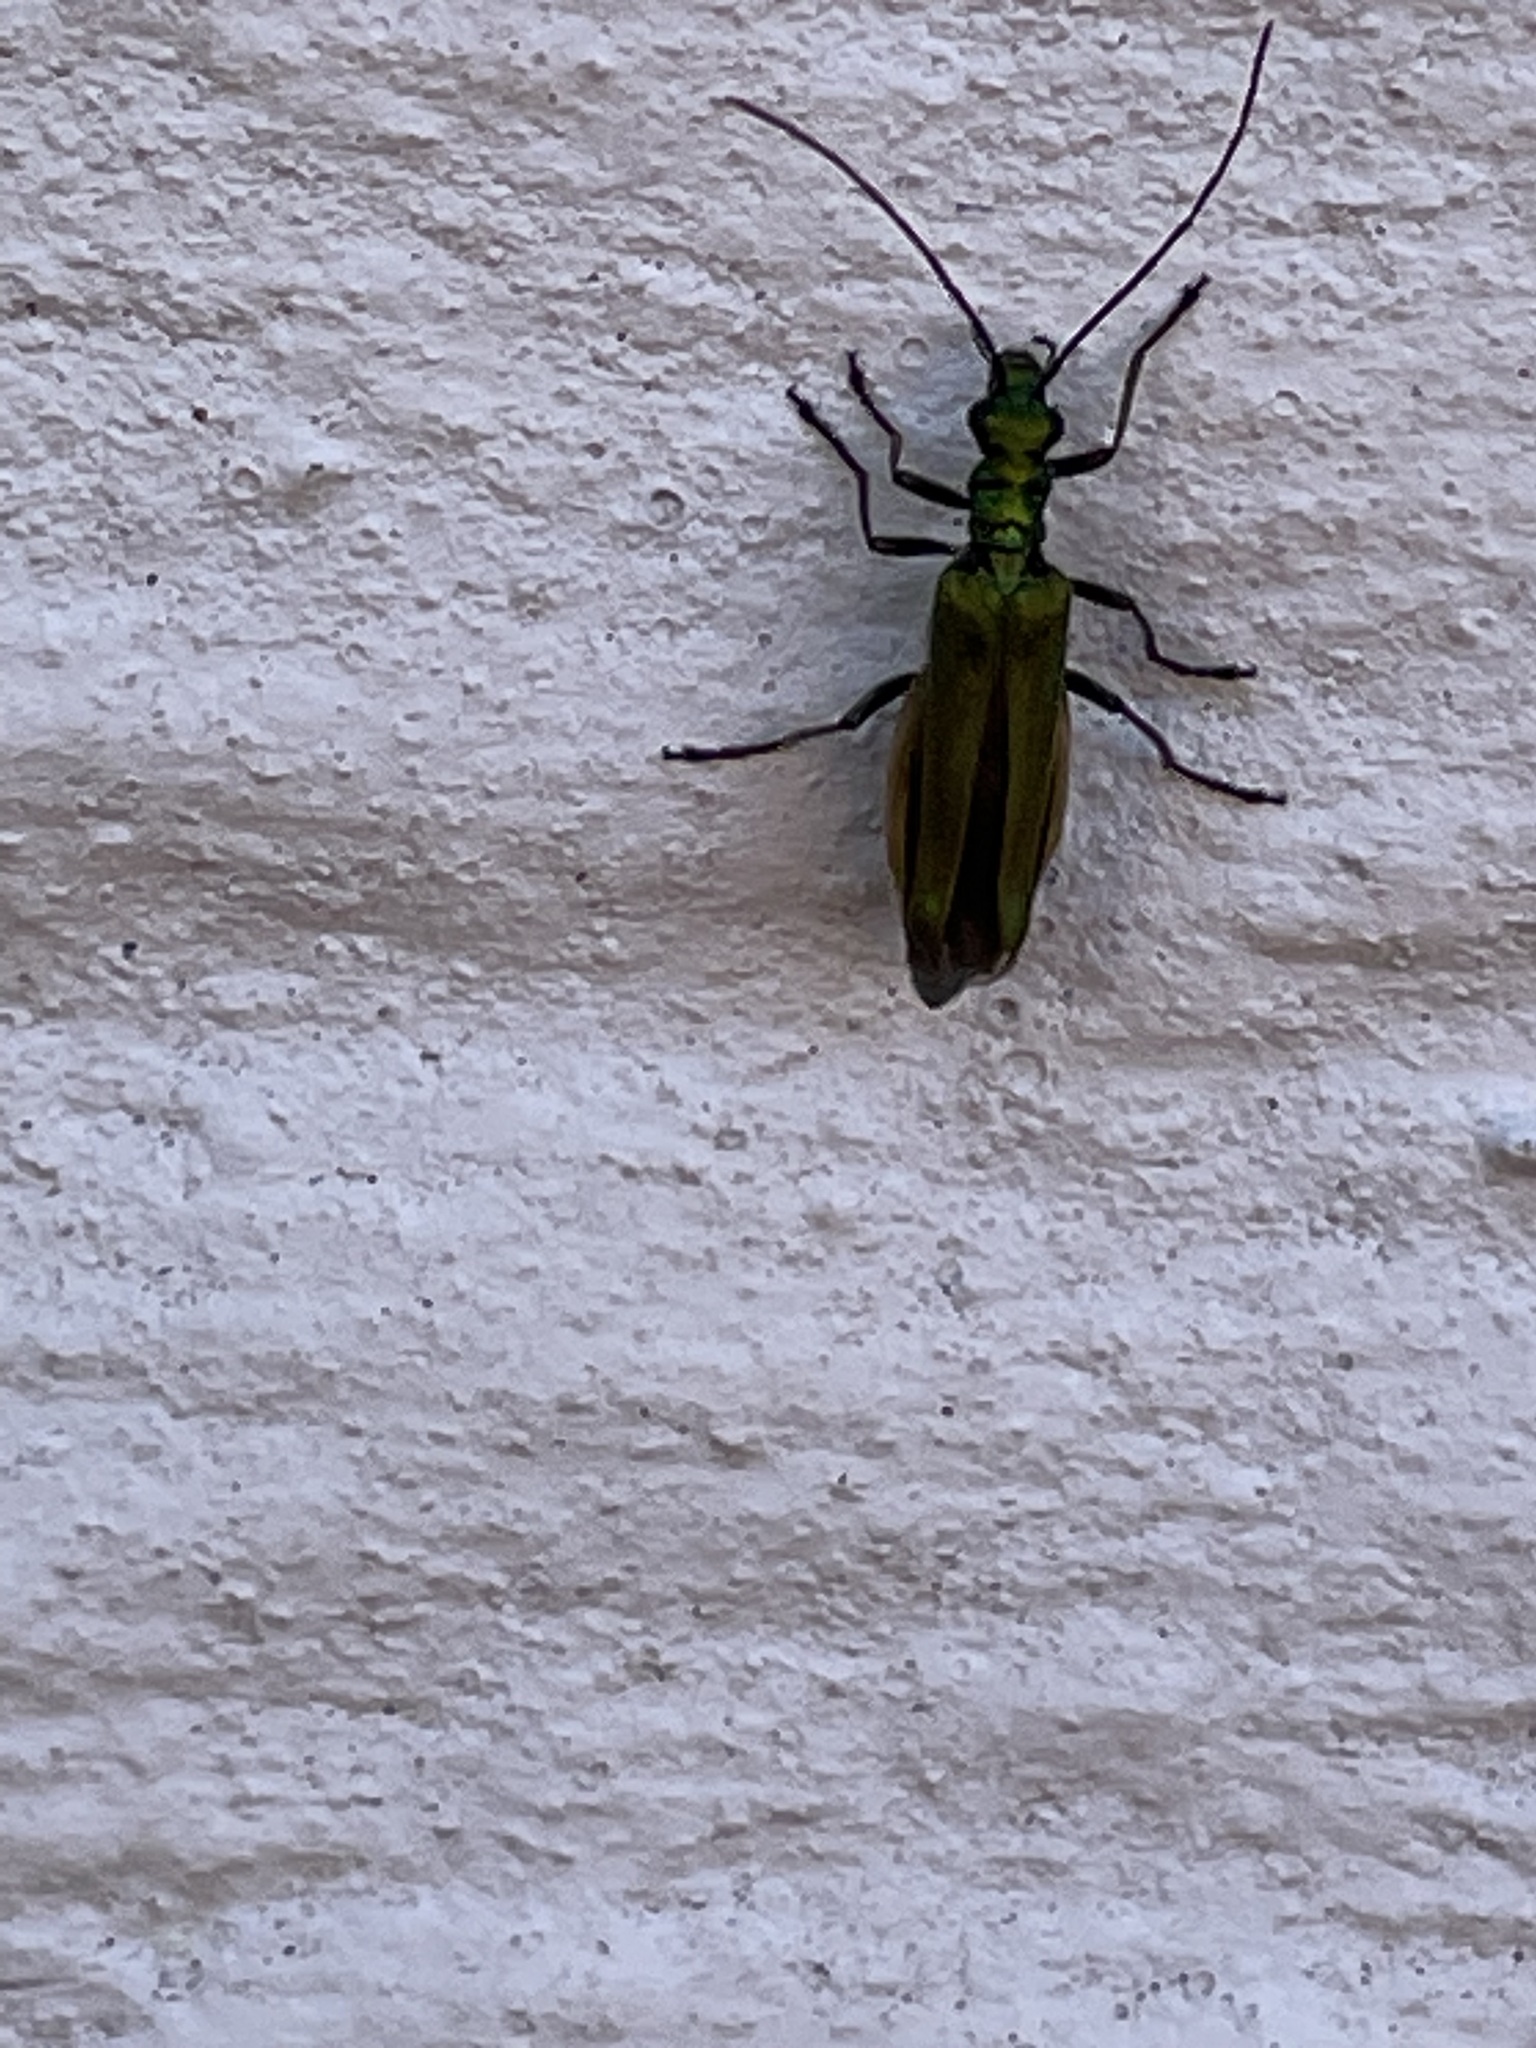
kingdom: Animalia
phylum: Arthropoda
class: Insecta
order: Coleoptera
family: Oedemeridae
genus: Oedemera
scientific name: Oedemera nobilis
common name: Swollen-thighed beetle
